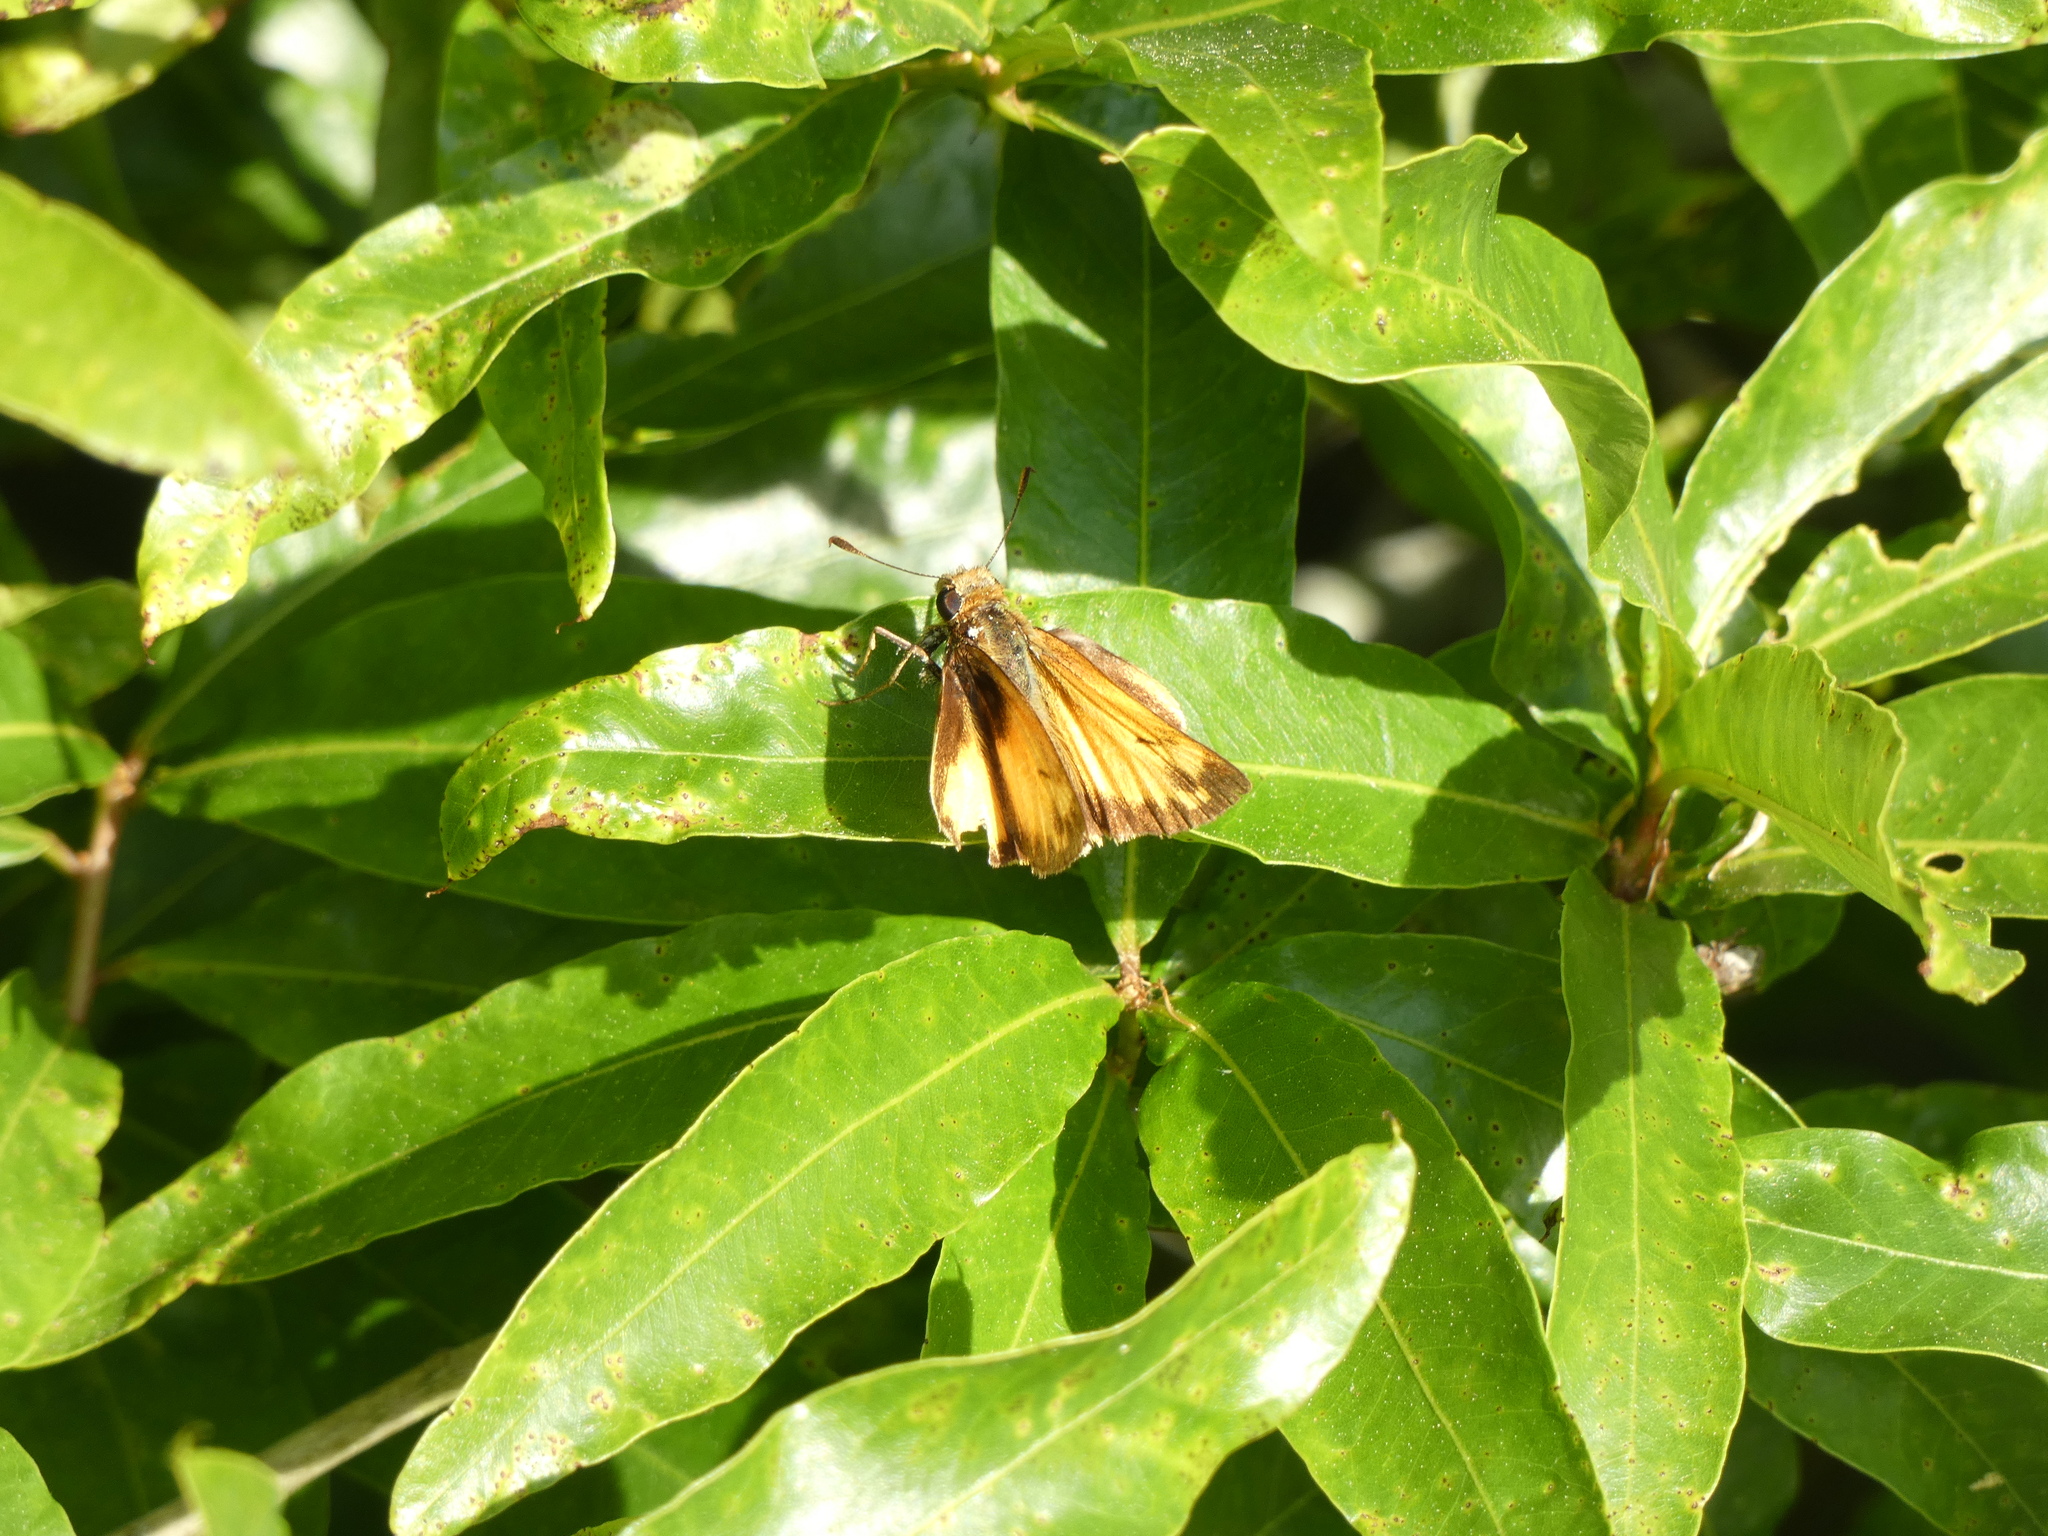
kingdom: Animalia
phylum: Arthropoda
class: Insecta
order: Lepidoptera
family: Hesperiidae
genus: Lon
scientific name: Lon zabulon
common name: Zabulon skipper
